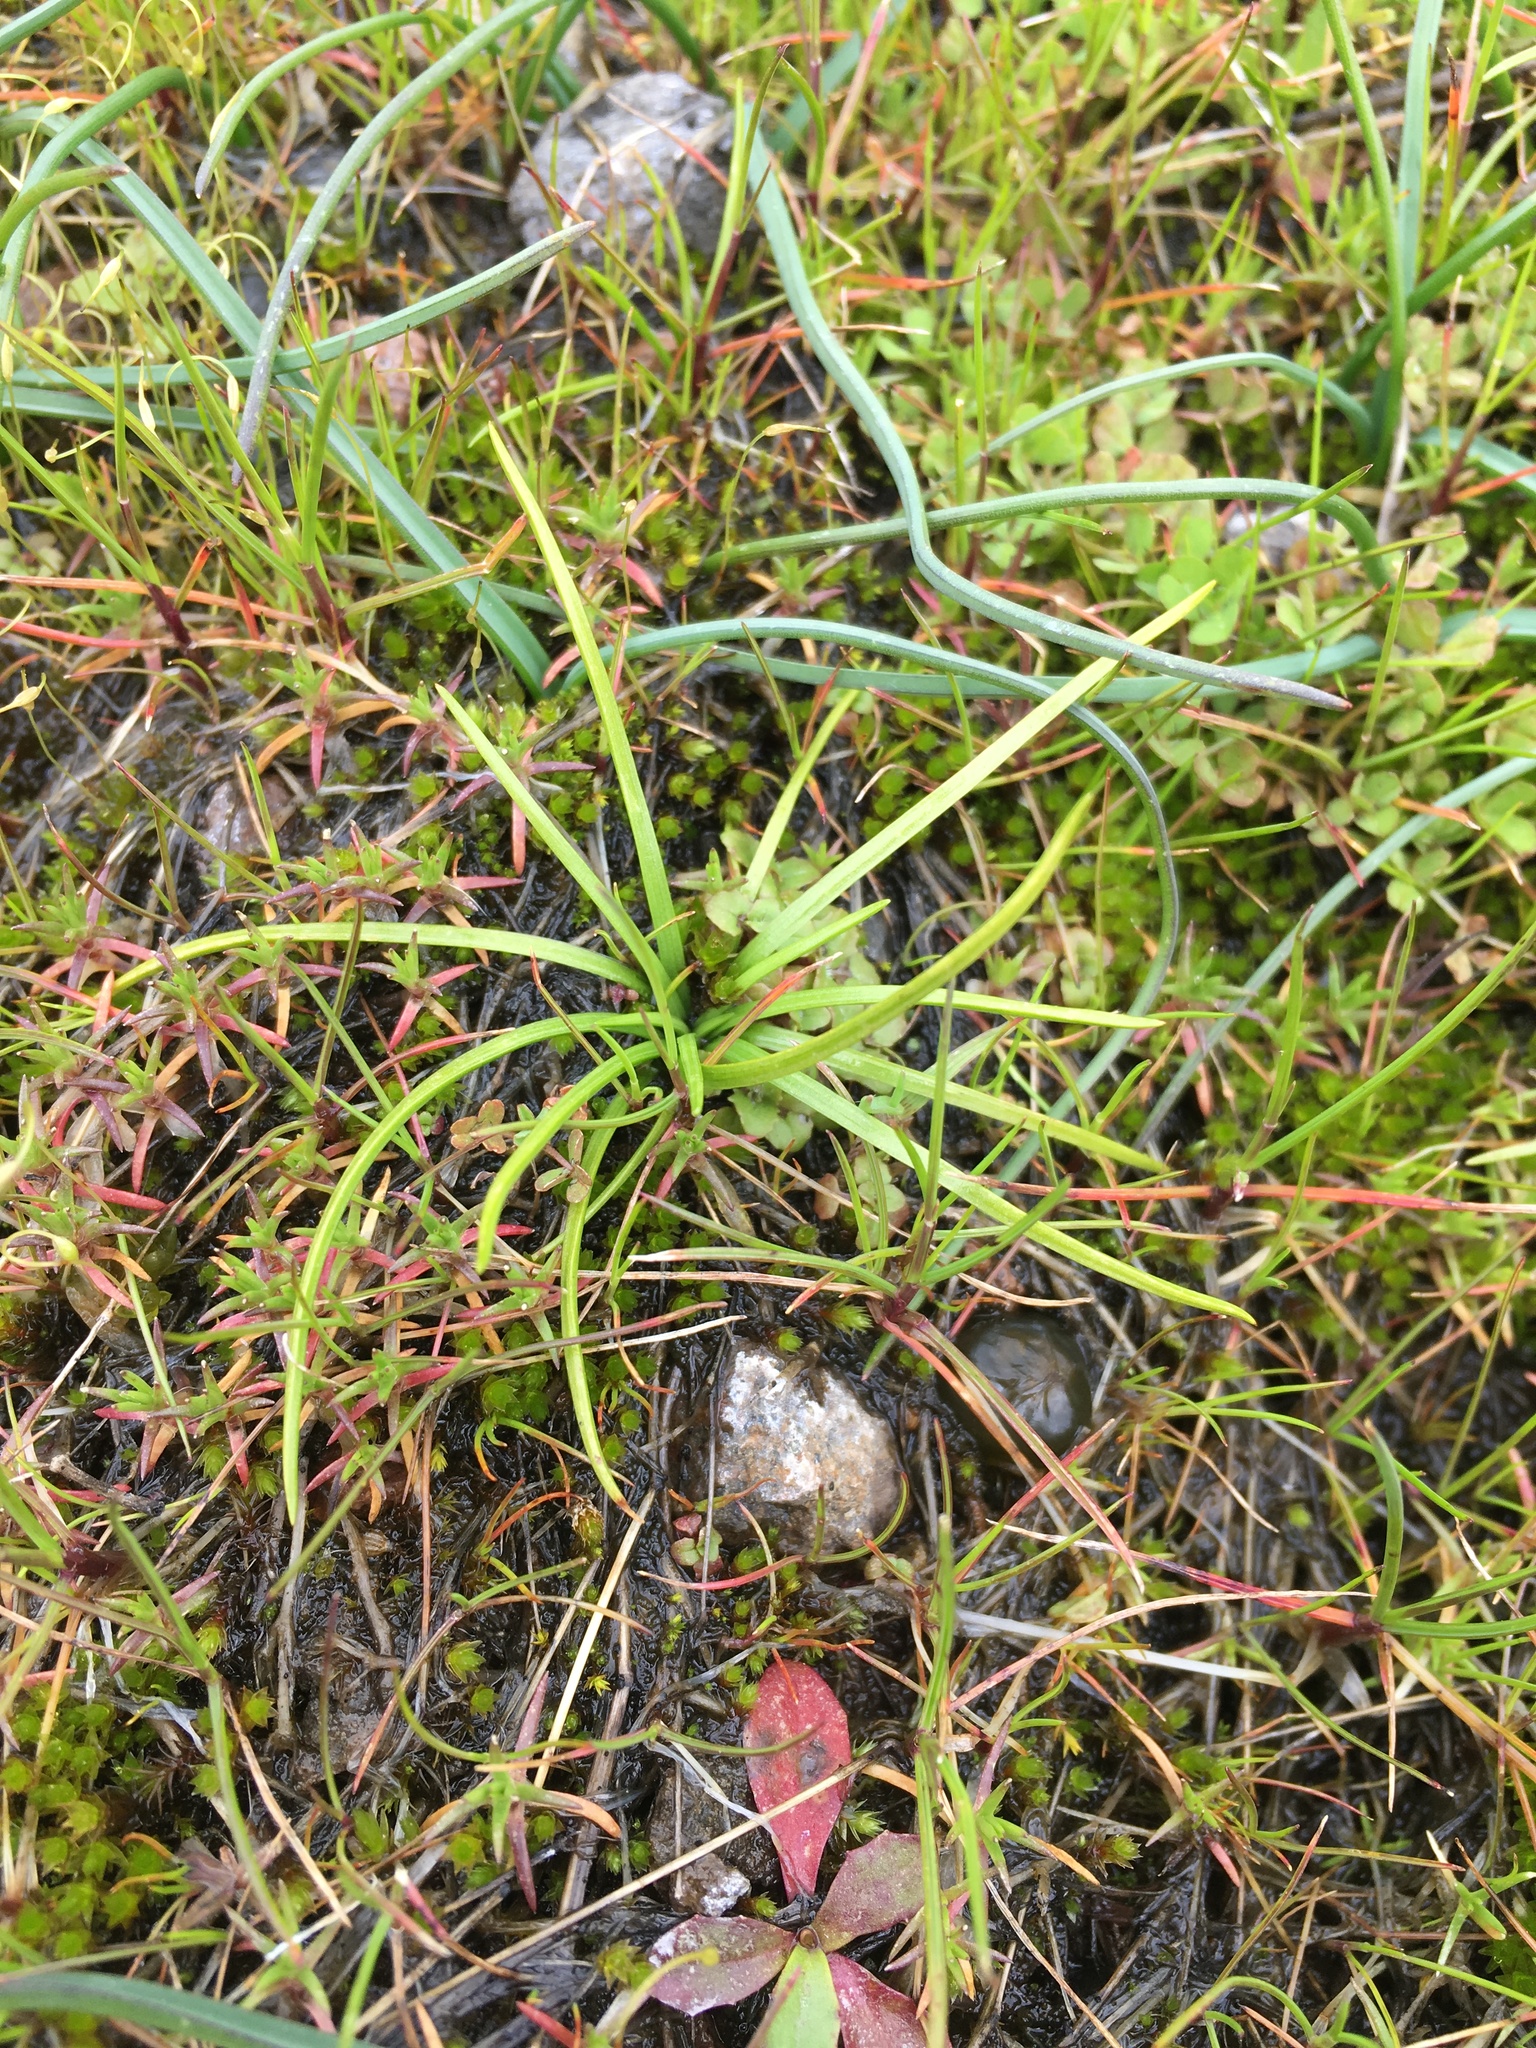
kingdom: Plantae
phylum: Tracheophyta
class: Lycopodiopsida
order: Isoetales
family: Isoetaceae
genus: Isoetes
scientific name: Isoetes nuttallii
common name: Nuttall's quillwort
